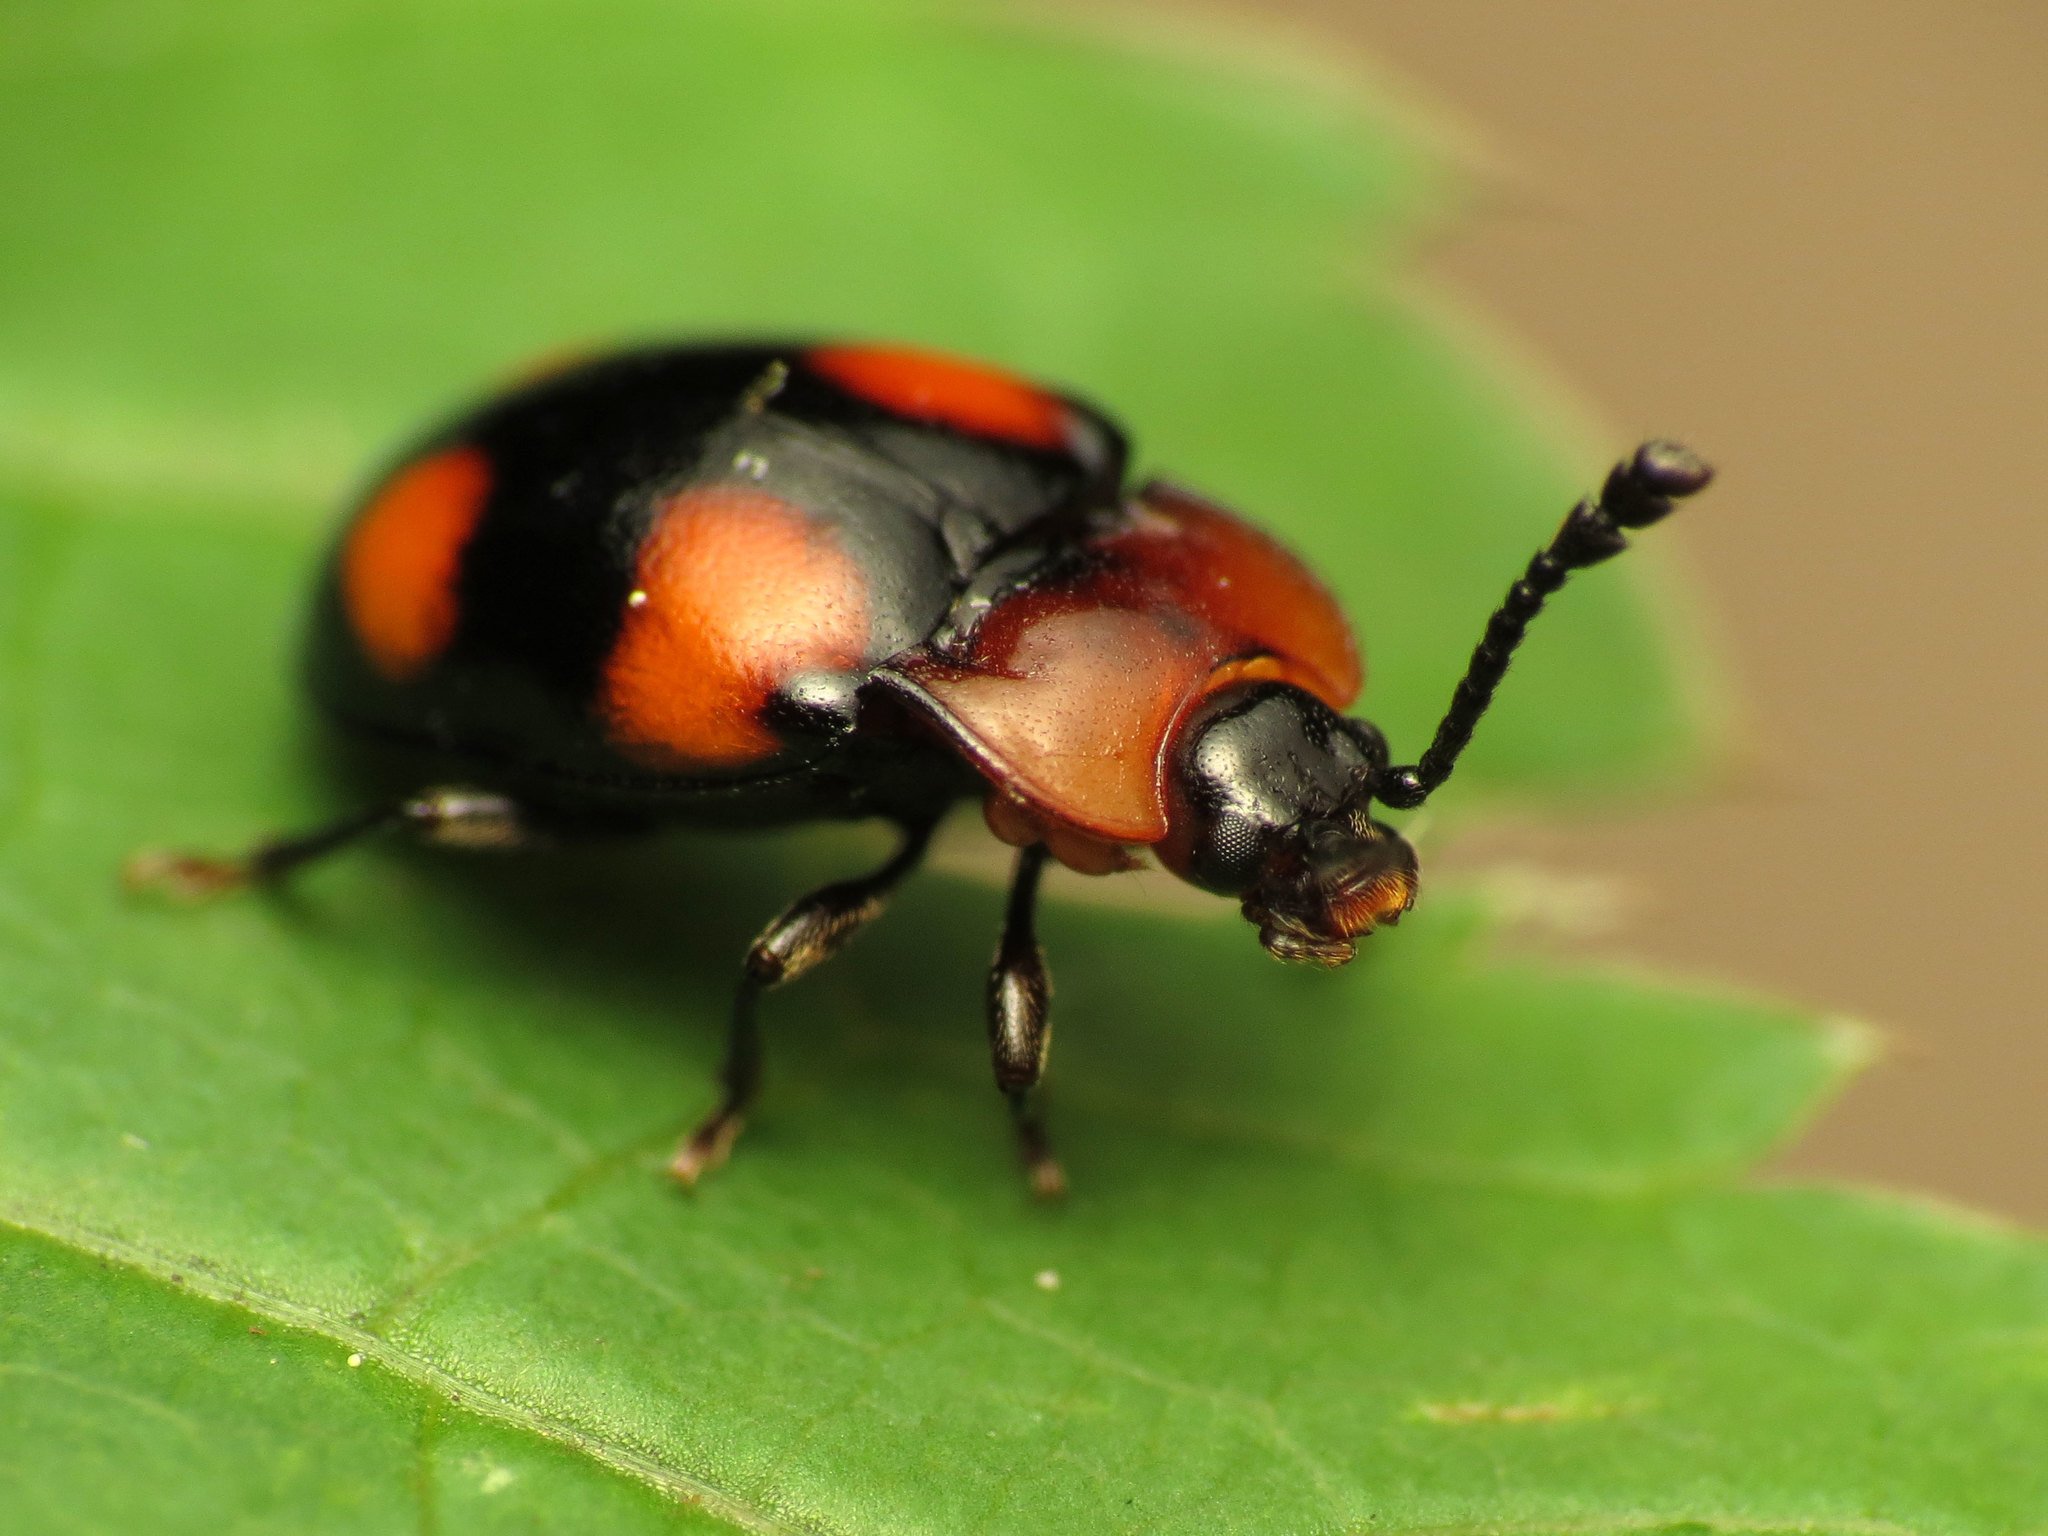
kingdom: Animalia
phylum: Arthropoda
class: Insecta
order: Coleoptera
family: Endomychidae
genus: Mycetina
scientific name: Mycetina perpulchra
